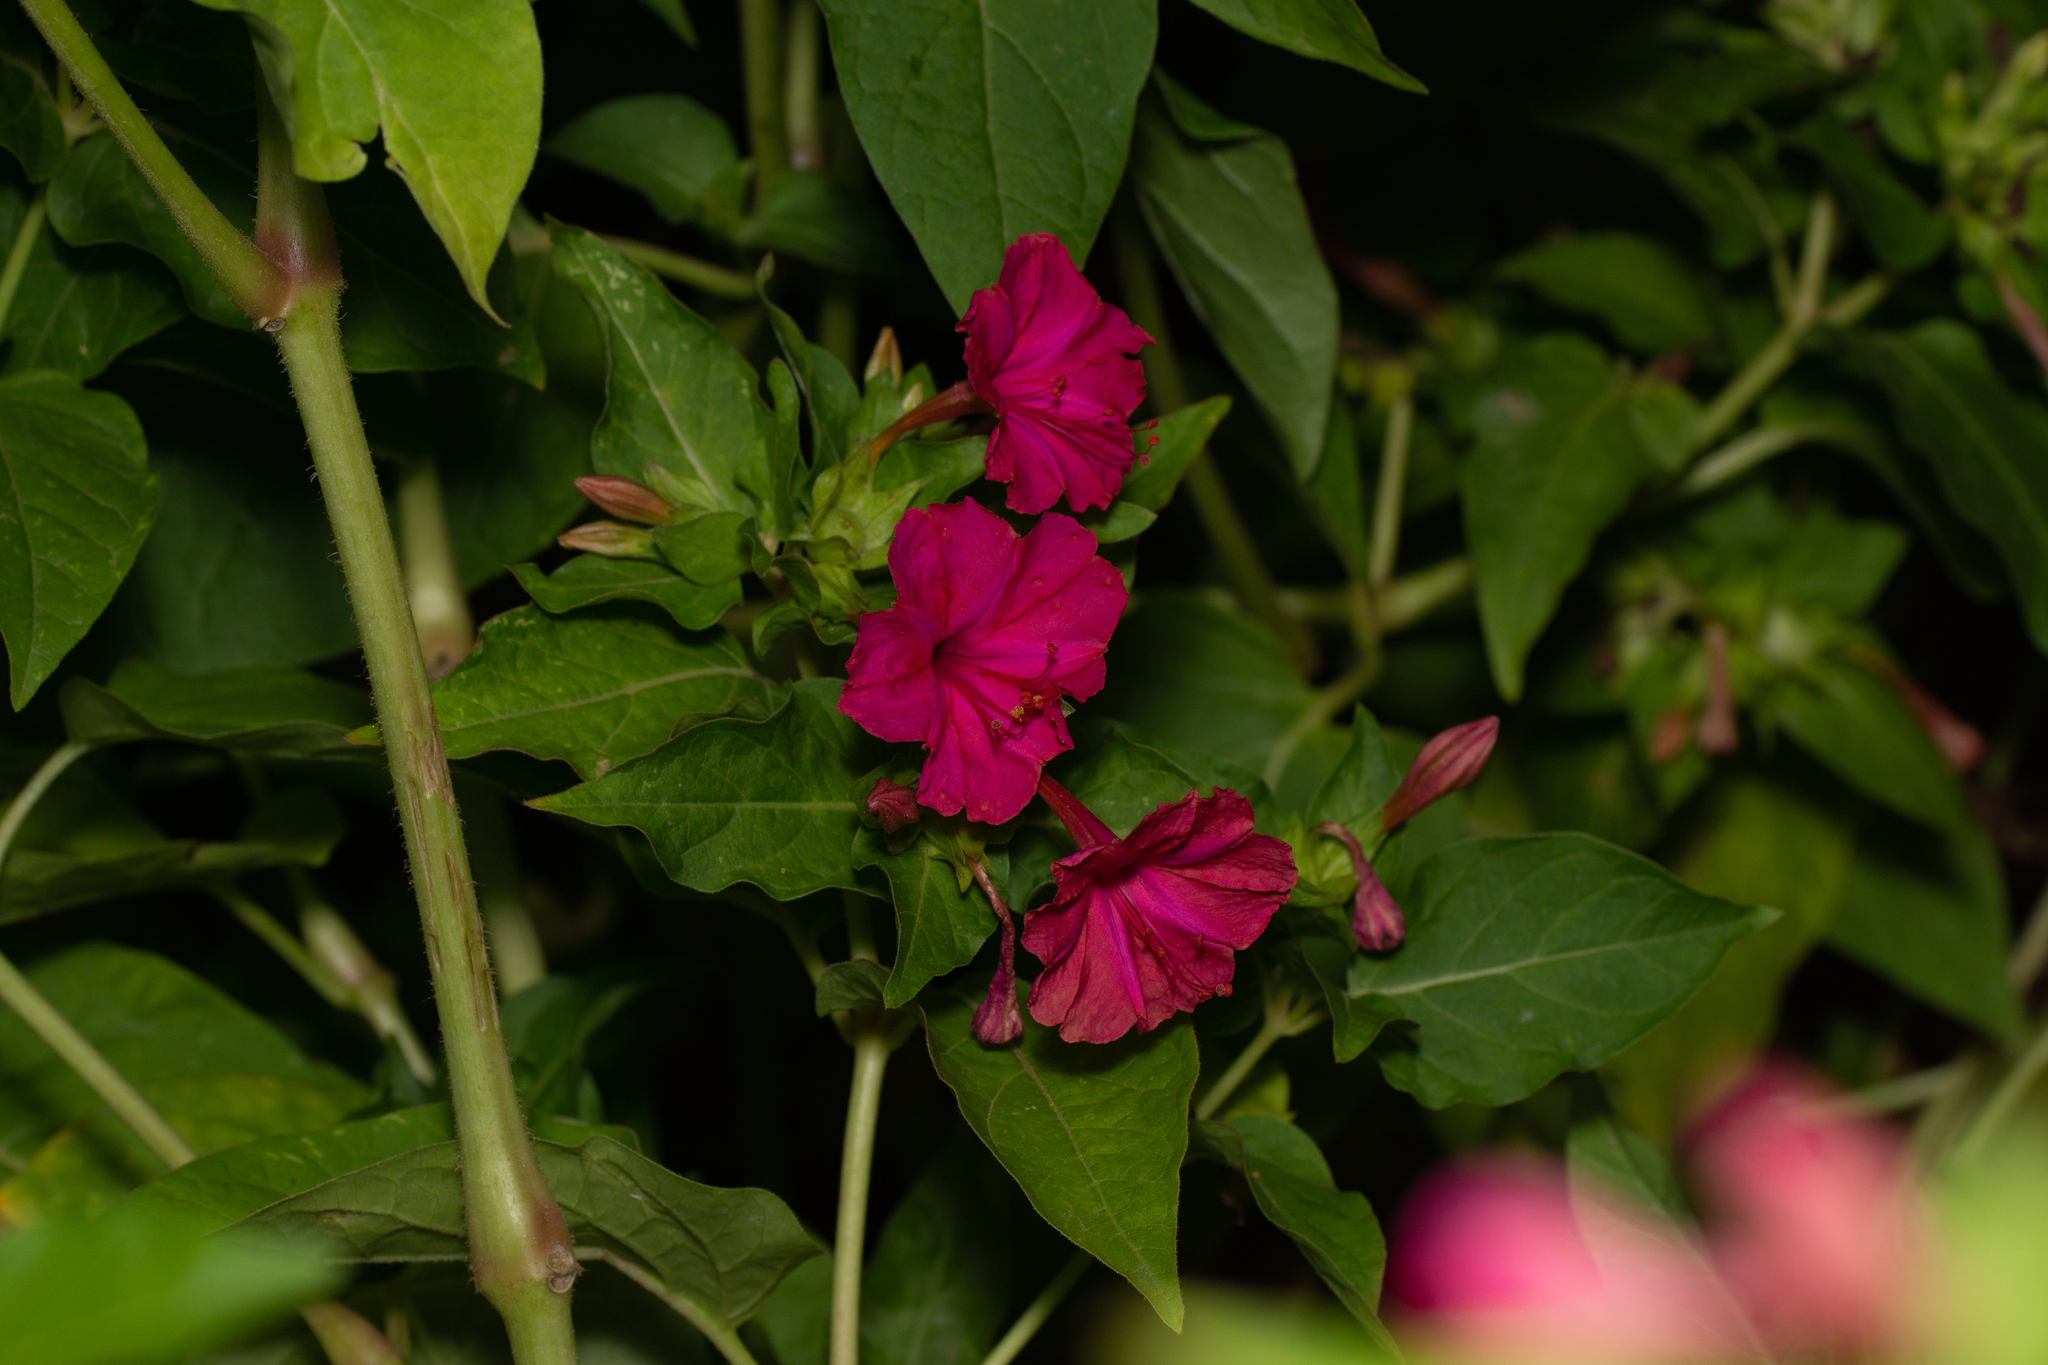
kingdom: Plantae
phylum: Tracheophyta
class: Magnoliopsida
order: Caryophyllales
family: Nyctaginaceae
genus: Mirabilis
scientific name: Mirabilis jalapa
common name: Marvel-of-peru
